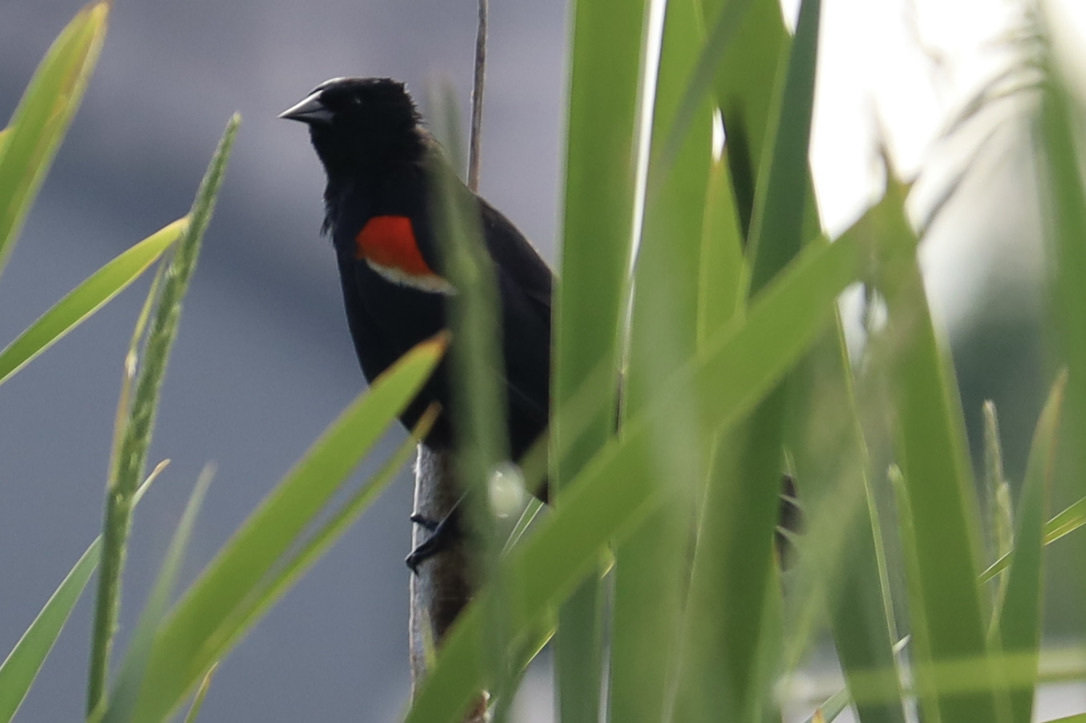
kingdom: Animalia
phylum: Chordata
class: Aves
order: Passeriformes
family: Icteridae
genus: Agelaius
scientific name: Agelaius phoeniceus
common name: Red-winged blackbird
